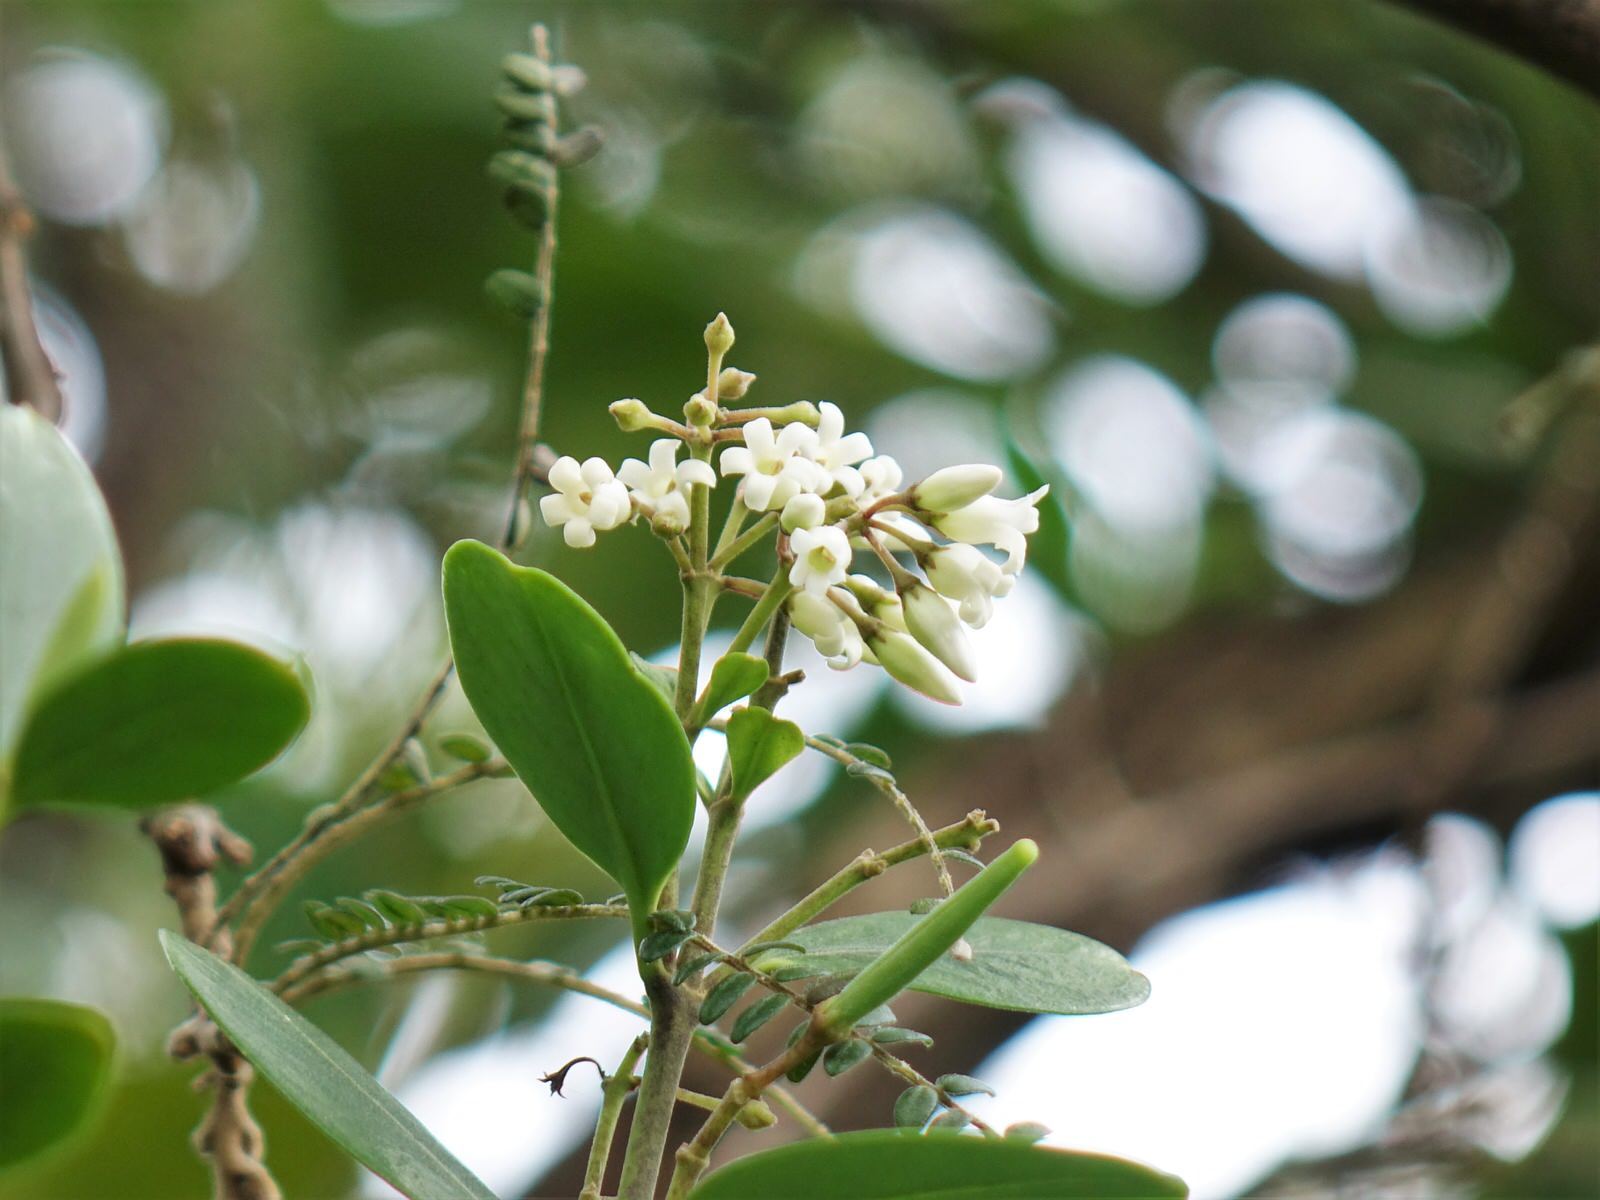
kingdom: Plantae
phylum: Tracheophyta
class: Magnoliopsida
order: Gentianales
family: Apocynaceae
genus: Parsonsia
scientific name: Parsonsia heterophylla
